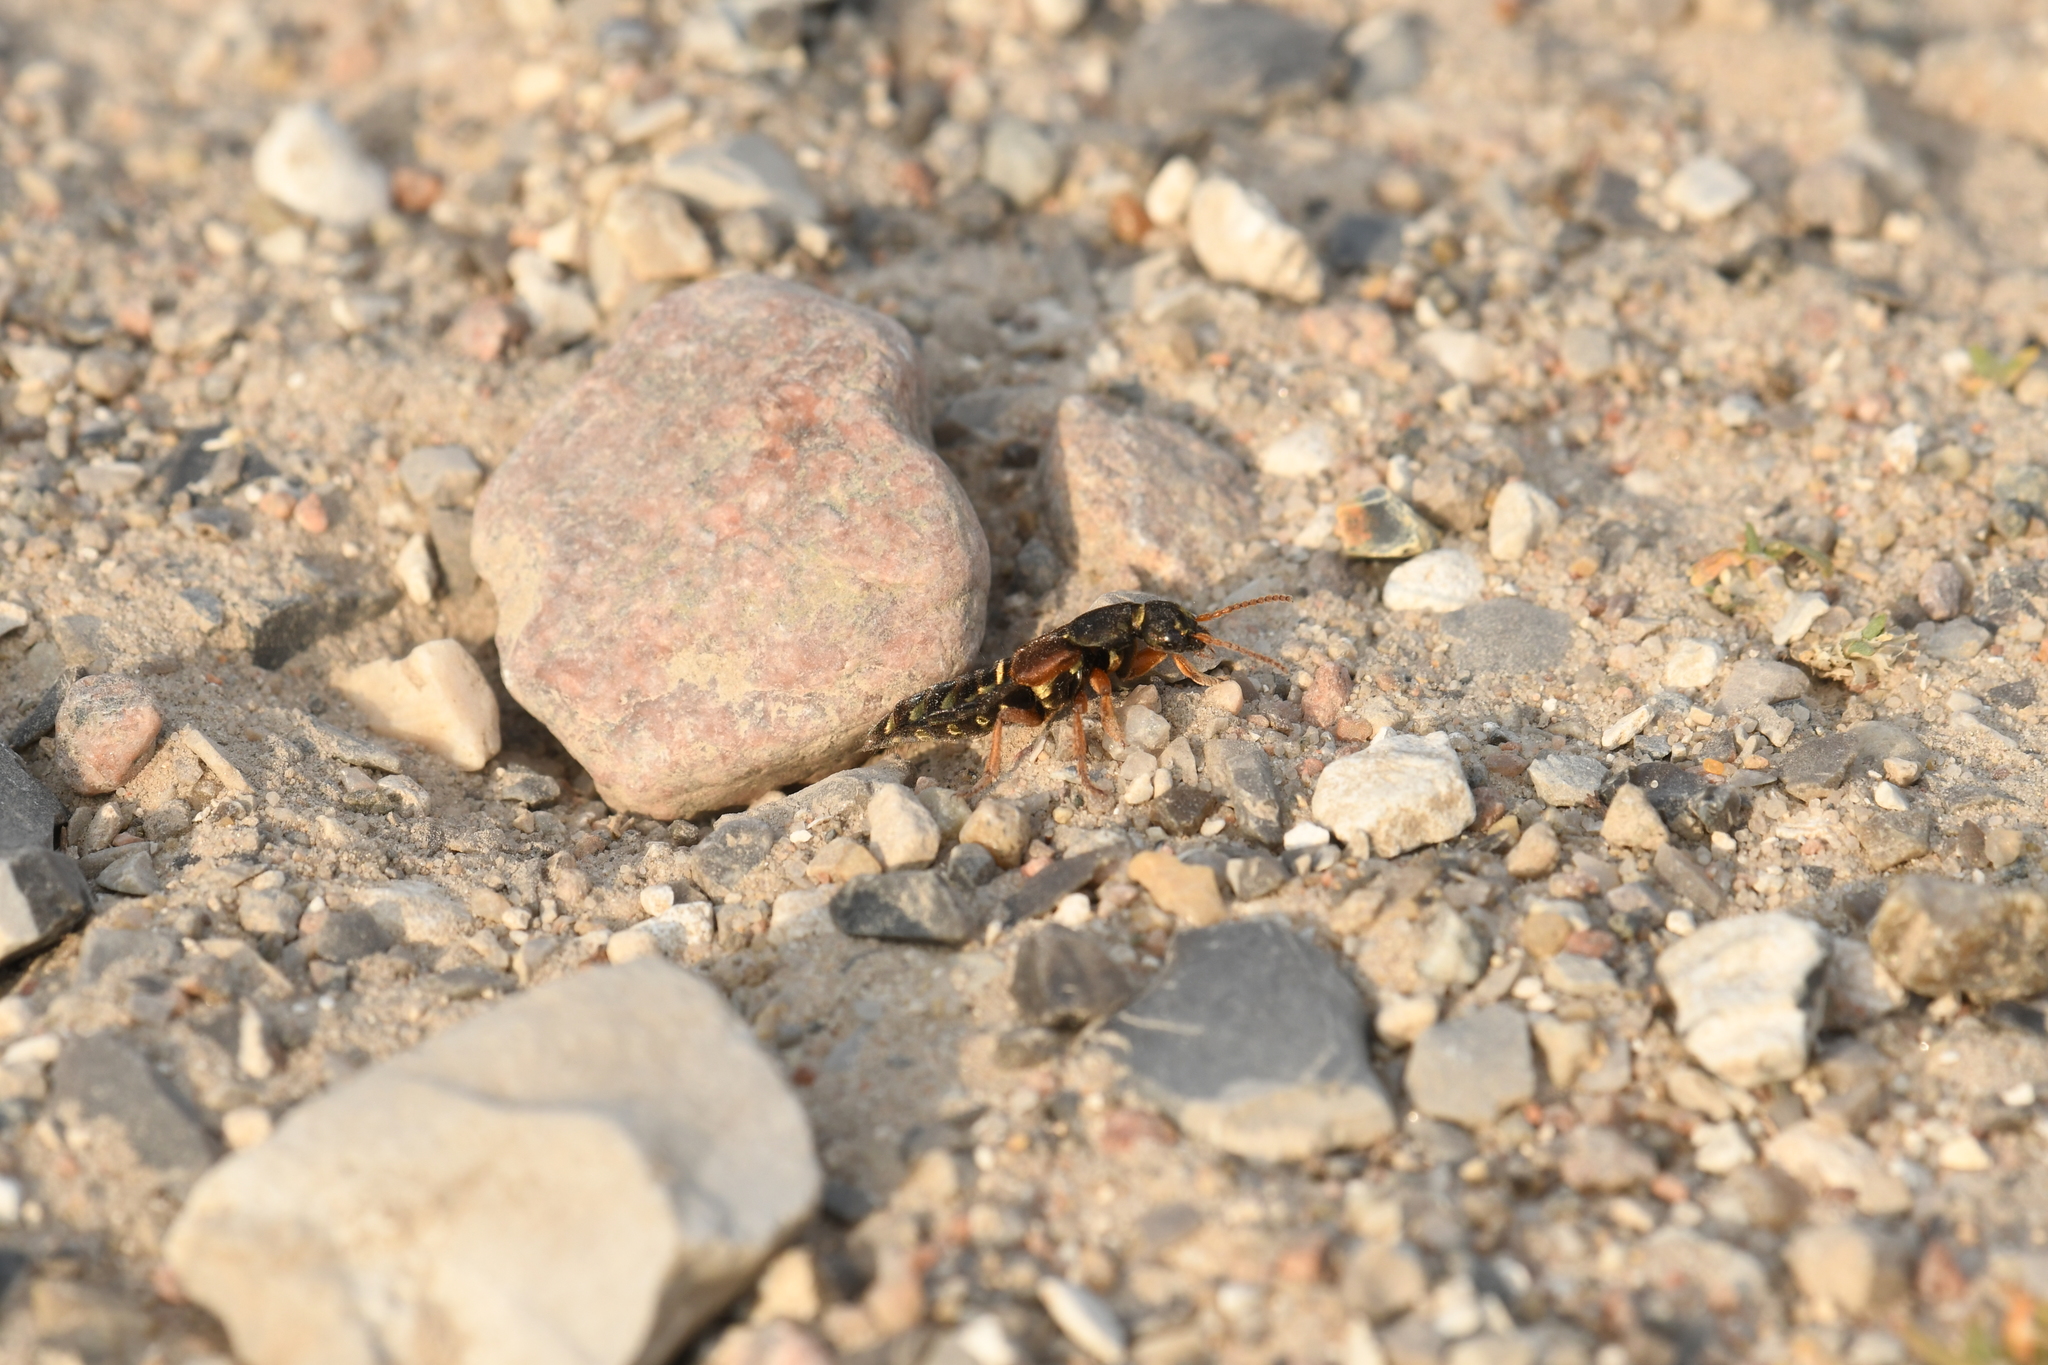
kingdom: Animalia
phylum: Arthropoda
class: Insecta
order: Coleoptera
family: Staphylinidae
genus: Staphylinus
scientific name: Staphylinus caesareus
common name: Staph beetle
